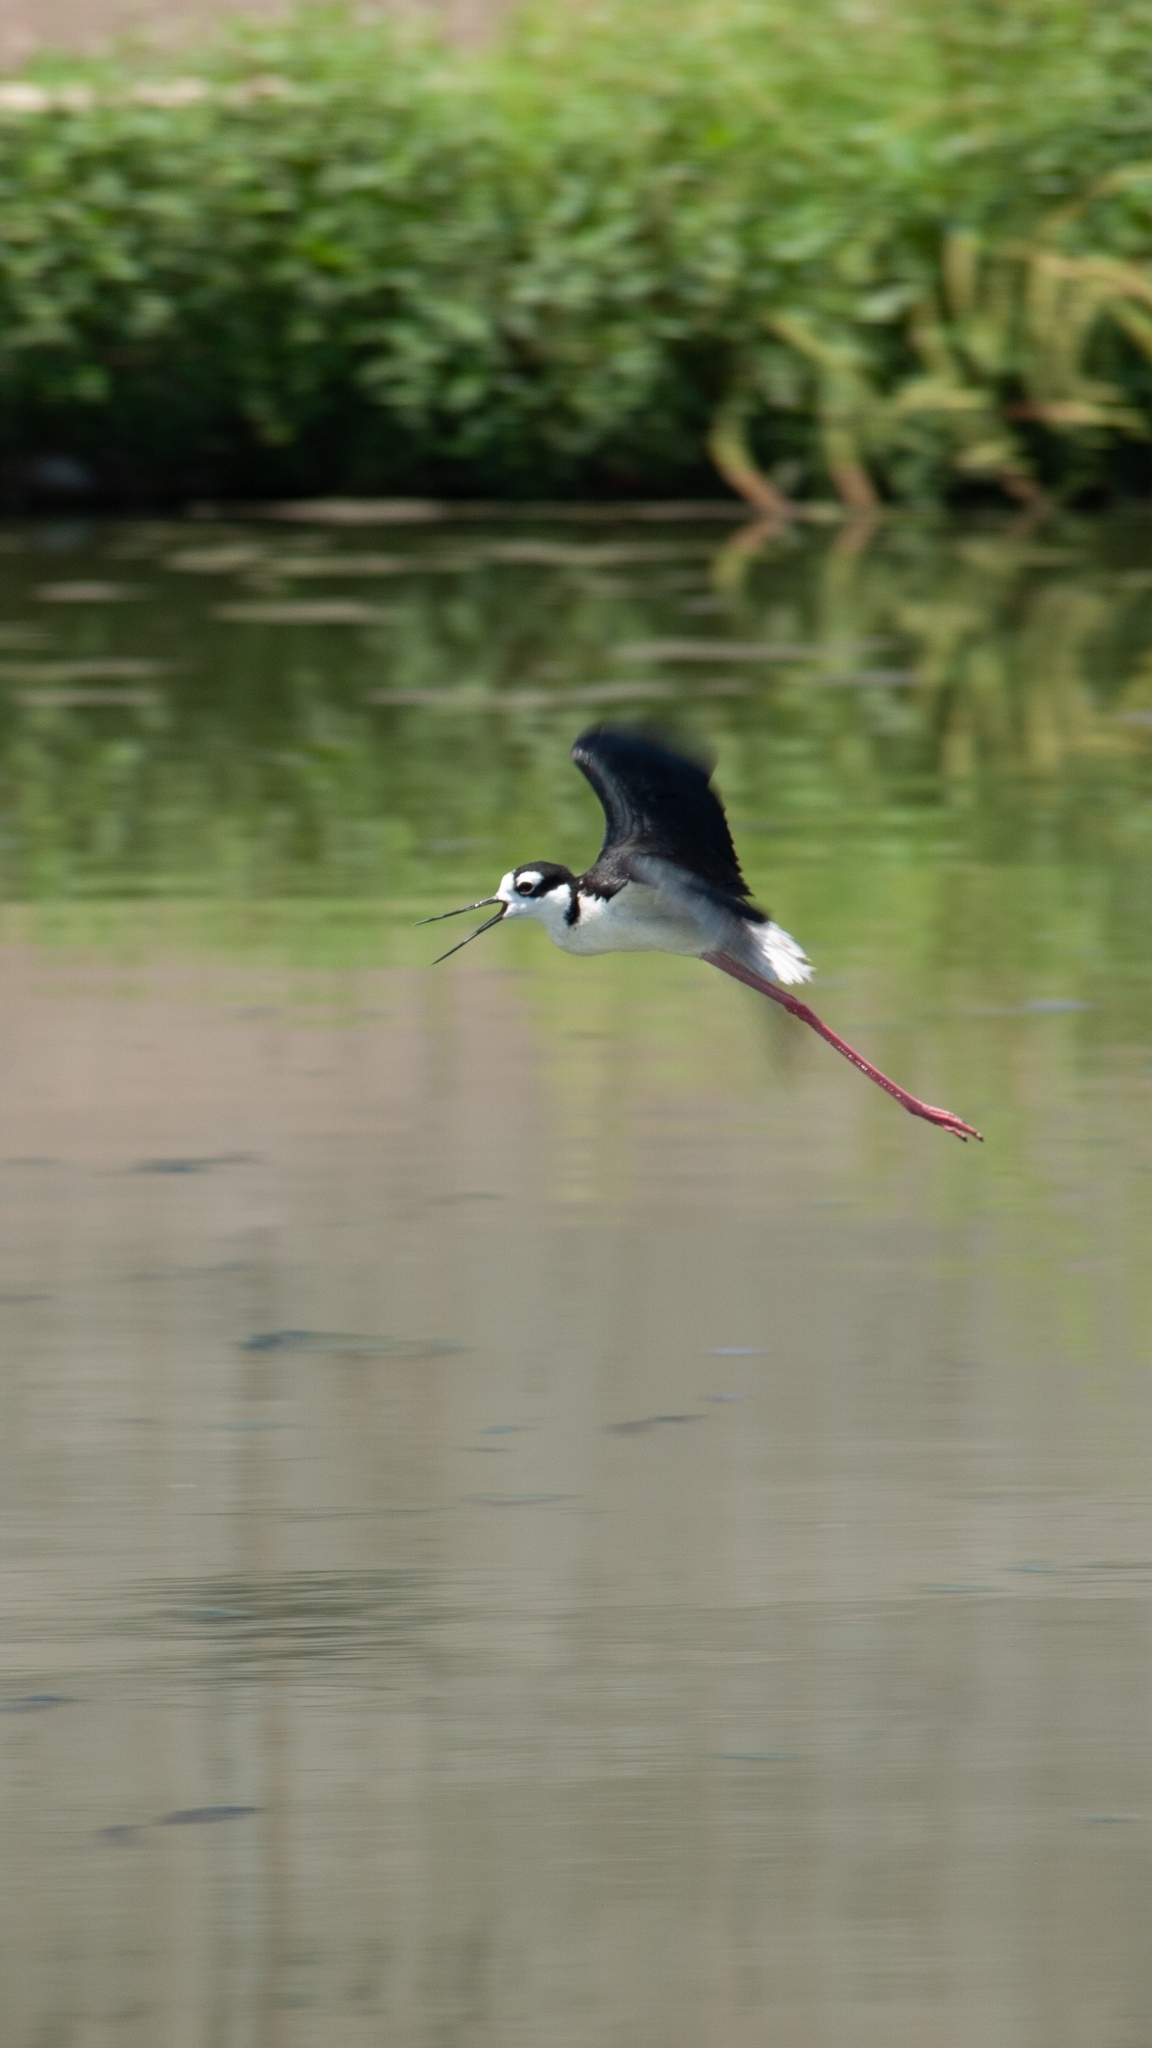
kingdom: Animalia
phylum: Chordata
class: Aves
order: Charadriiformes
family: Recurvirostridae
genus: Himantopus
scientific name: Himantopus mexicanus
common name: Black-necked stilt
